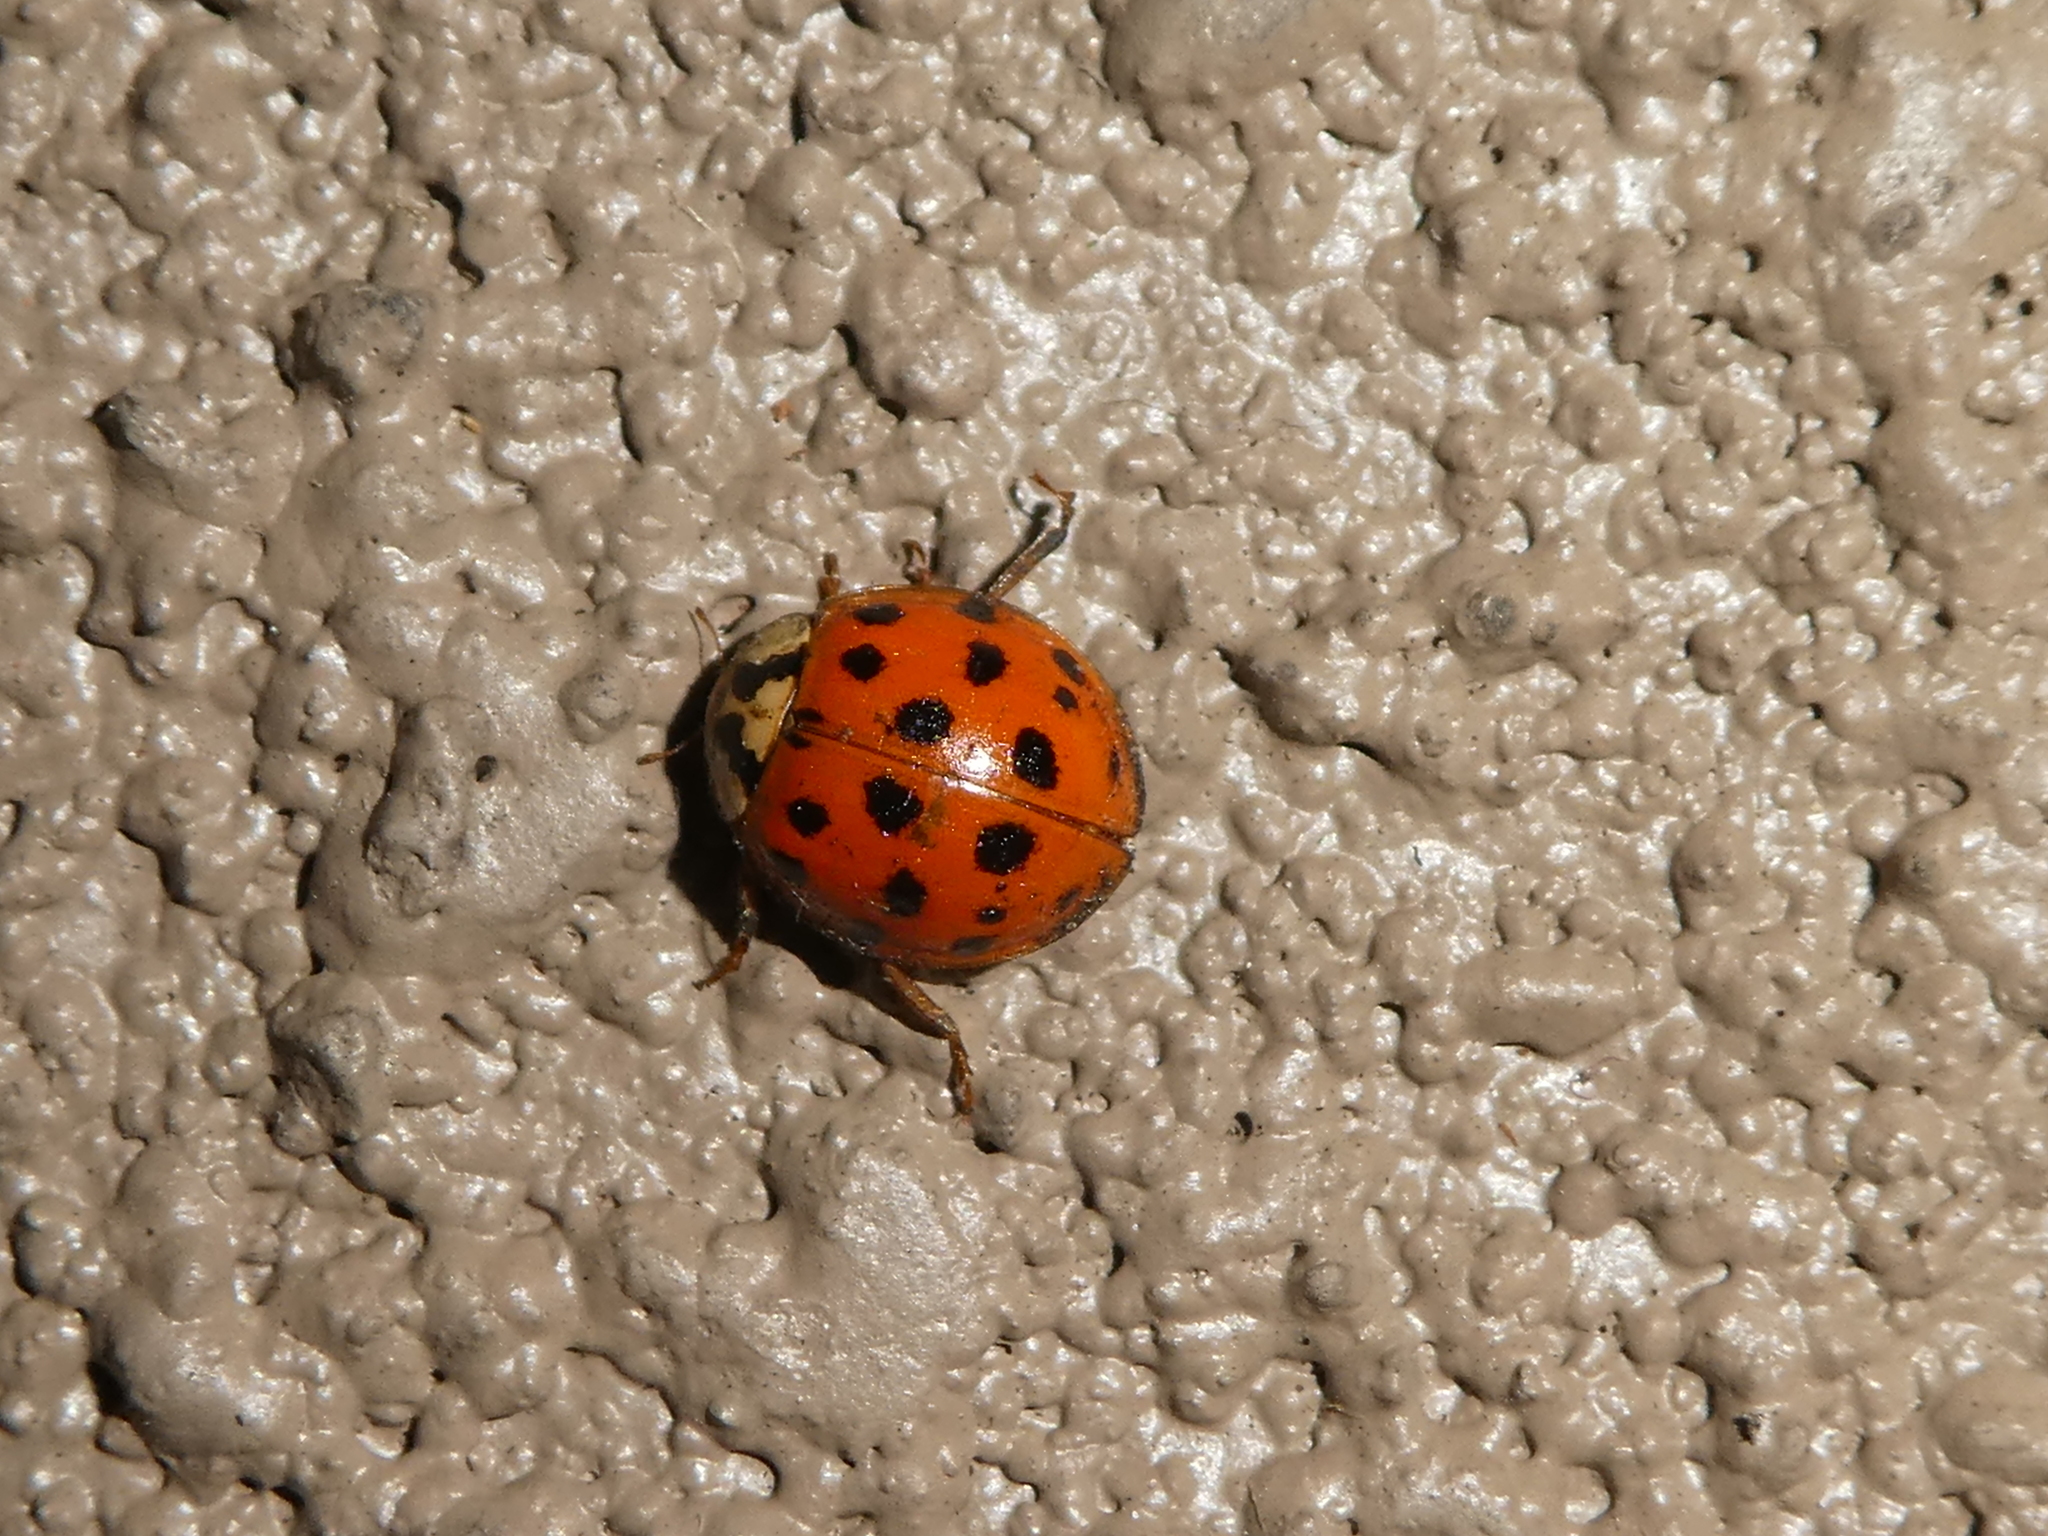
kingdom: Animalia
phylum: Arthropoda
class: Insecta
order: Coleoptera
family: Coccinellidae
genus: Harmonia
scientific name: Harmonia axyridis
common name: Harlequin ladybird
